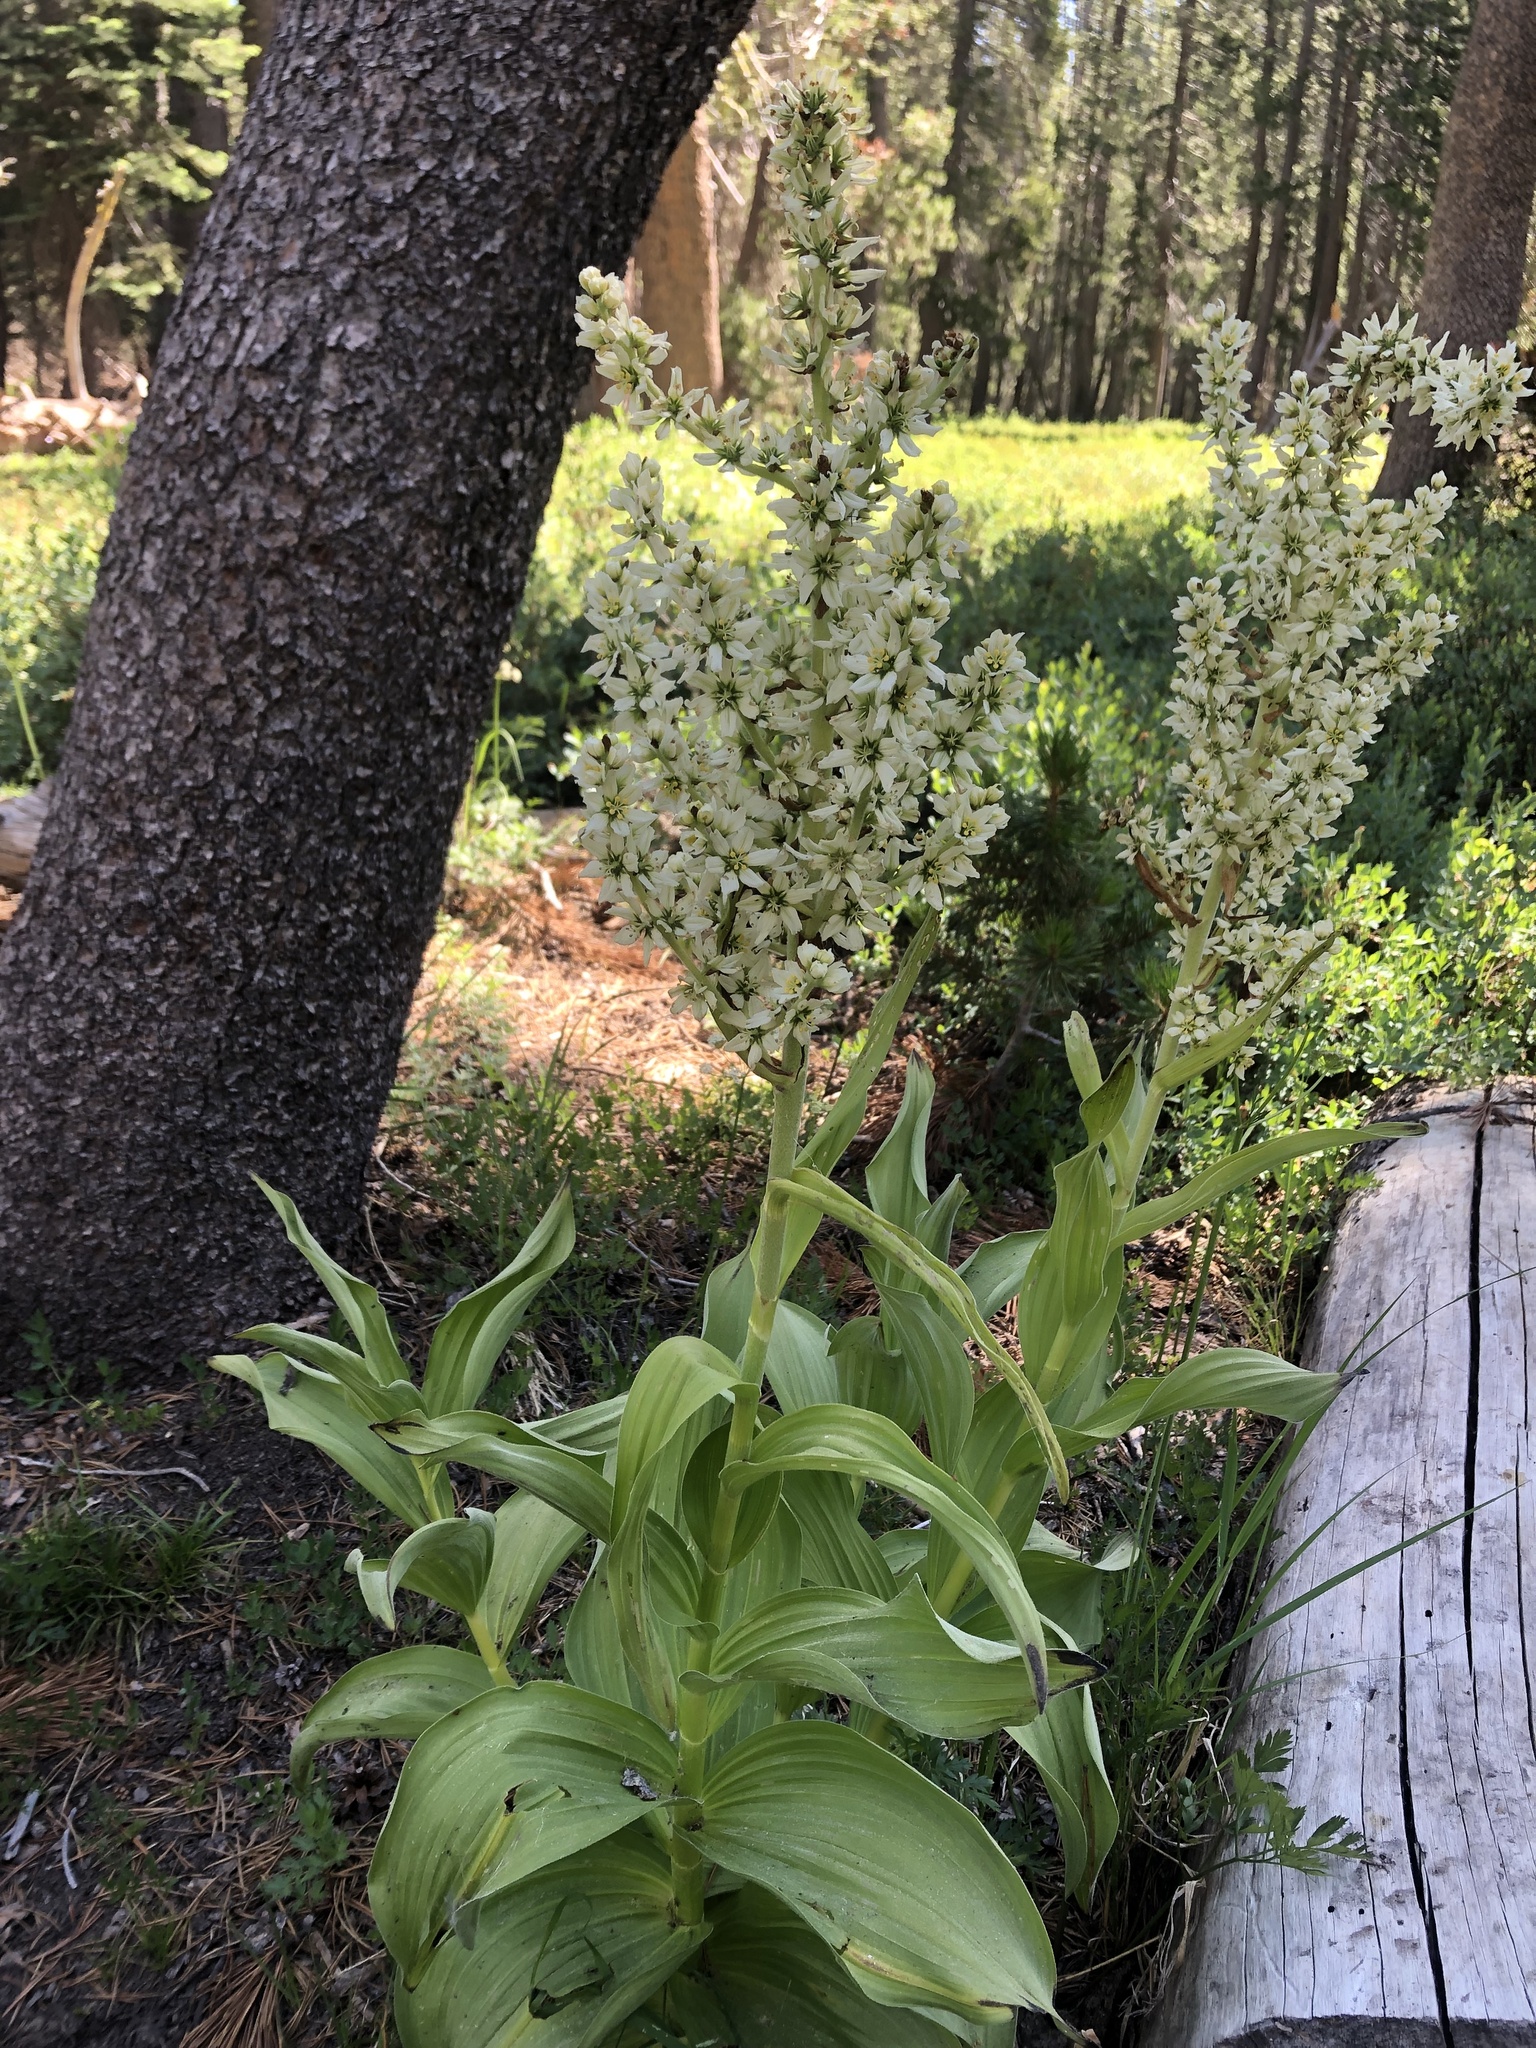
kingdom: Plantae
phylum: Tracheophyta
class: Liliopsida
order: Liliales
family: Melanthiaceae
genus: Veratrum
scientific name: Veratrum californicum
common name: California veratrum
